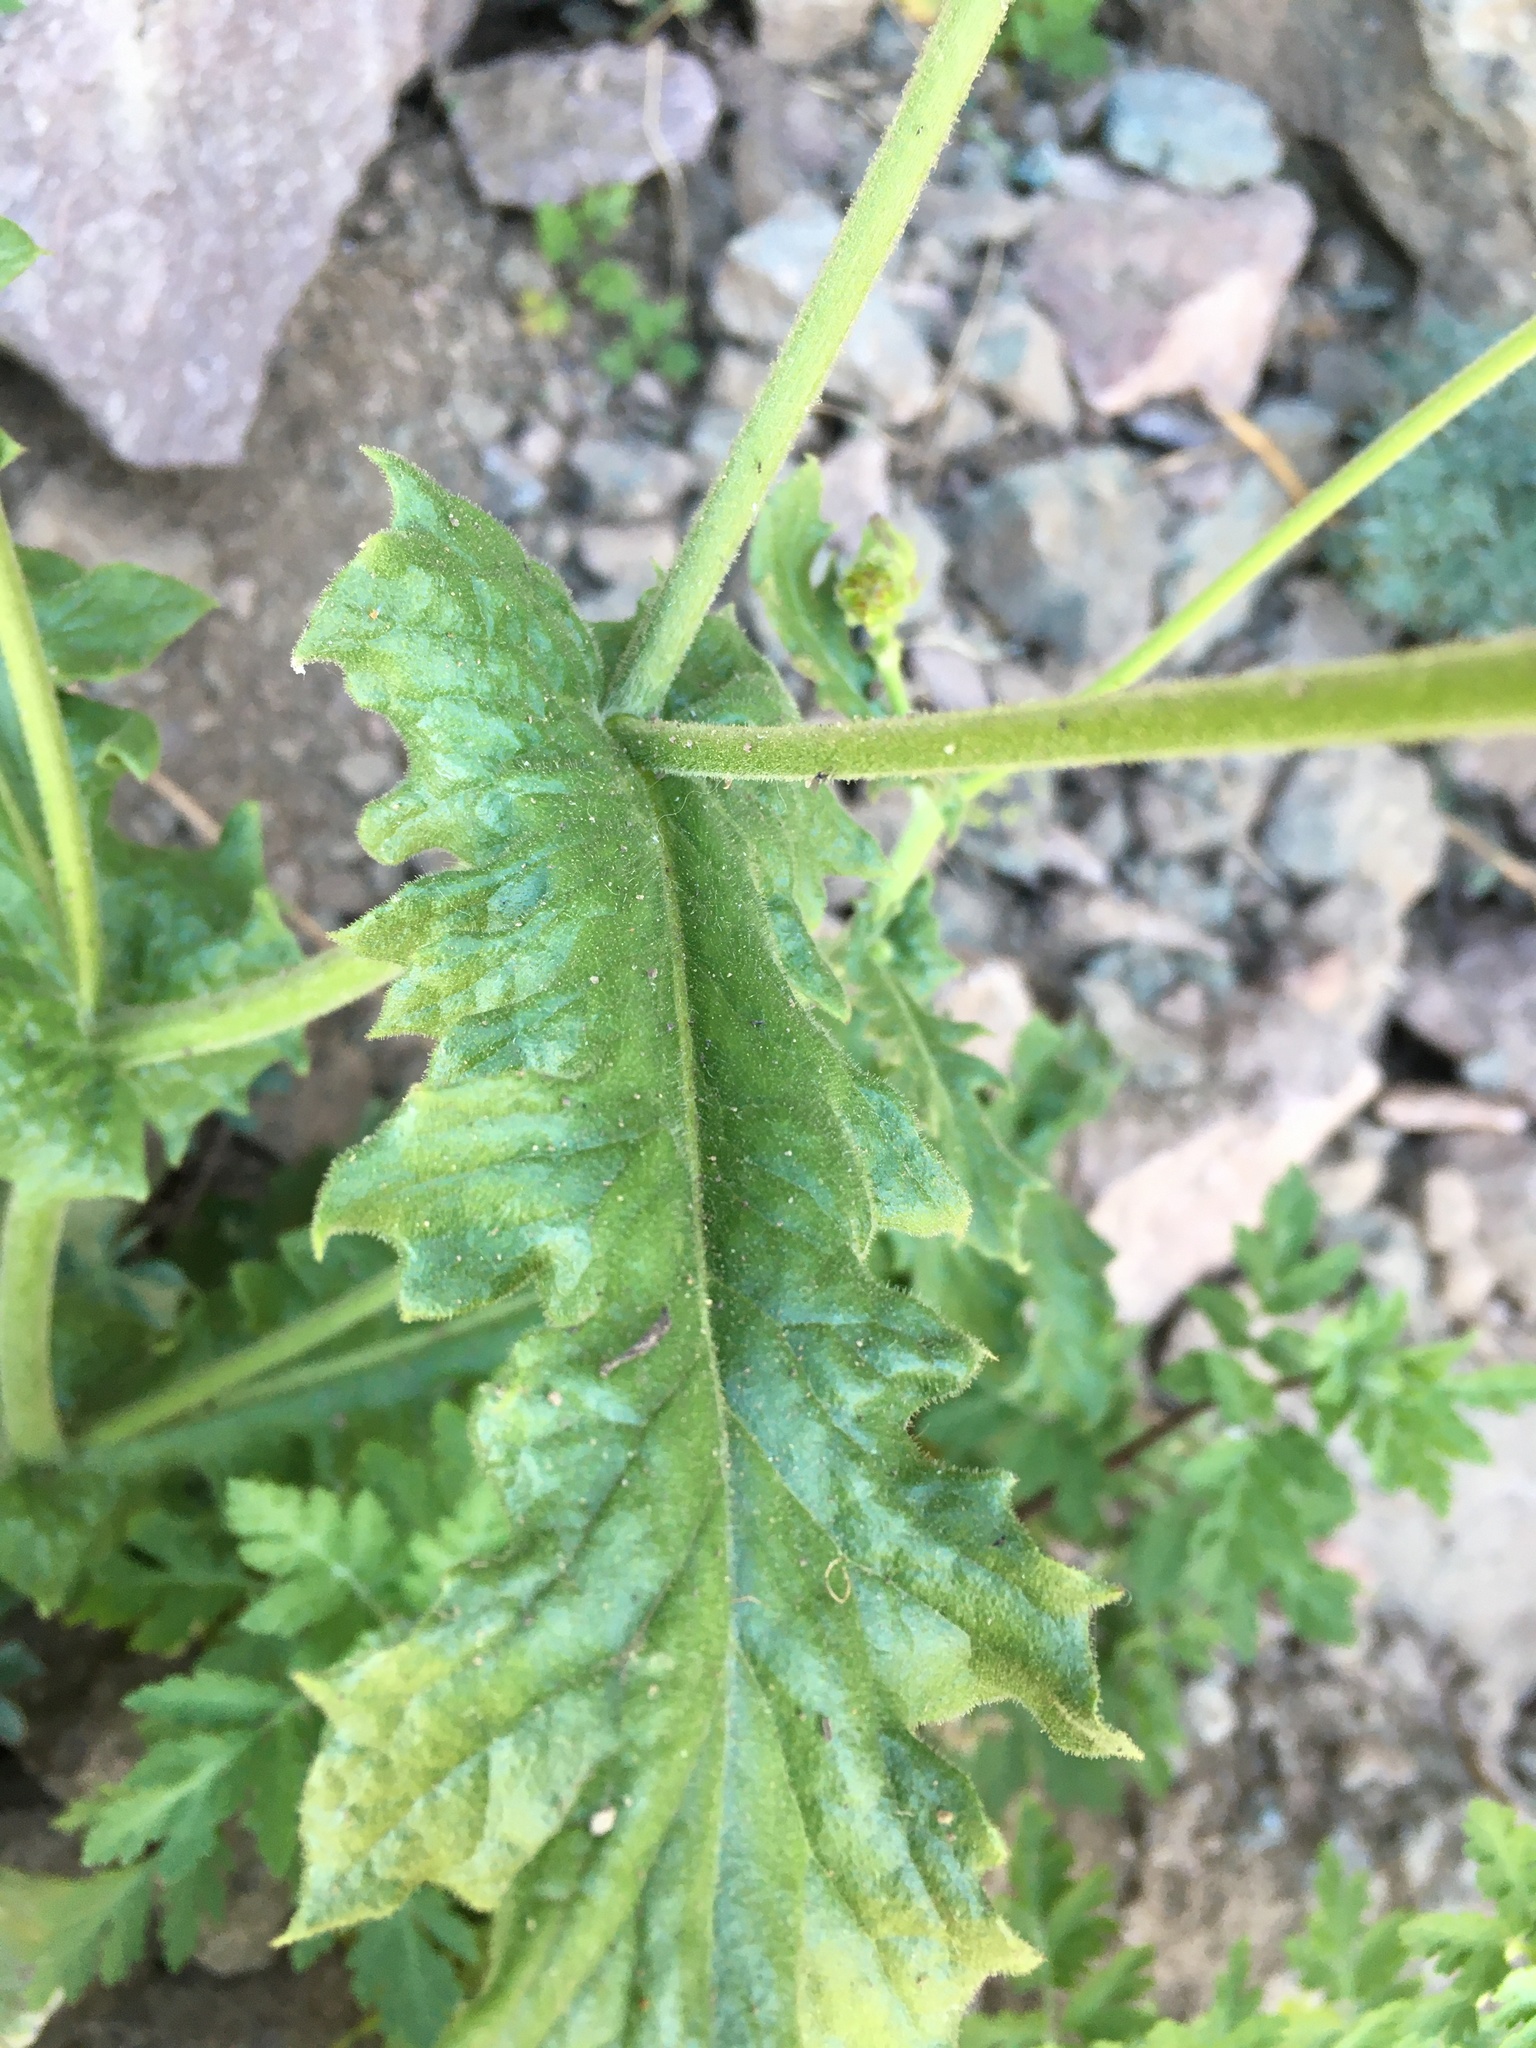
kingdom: Plantae
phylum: Tracheophyta
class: Magnoliopsida
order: Asterales
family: Asteraceae
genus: Leucheria
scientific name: Leucheria runcinata
